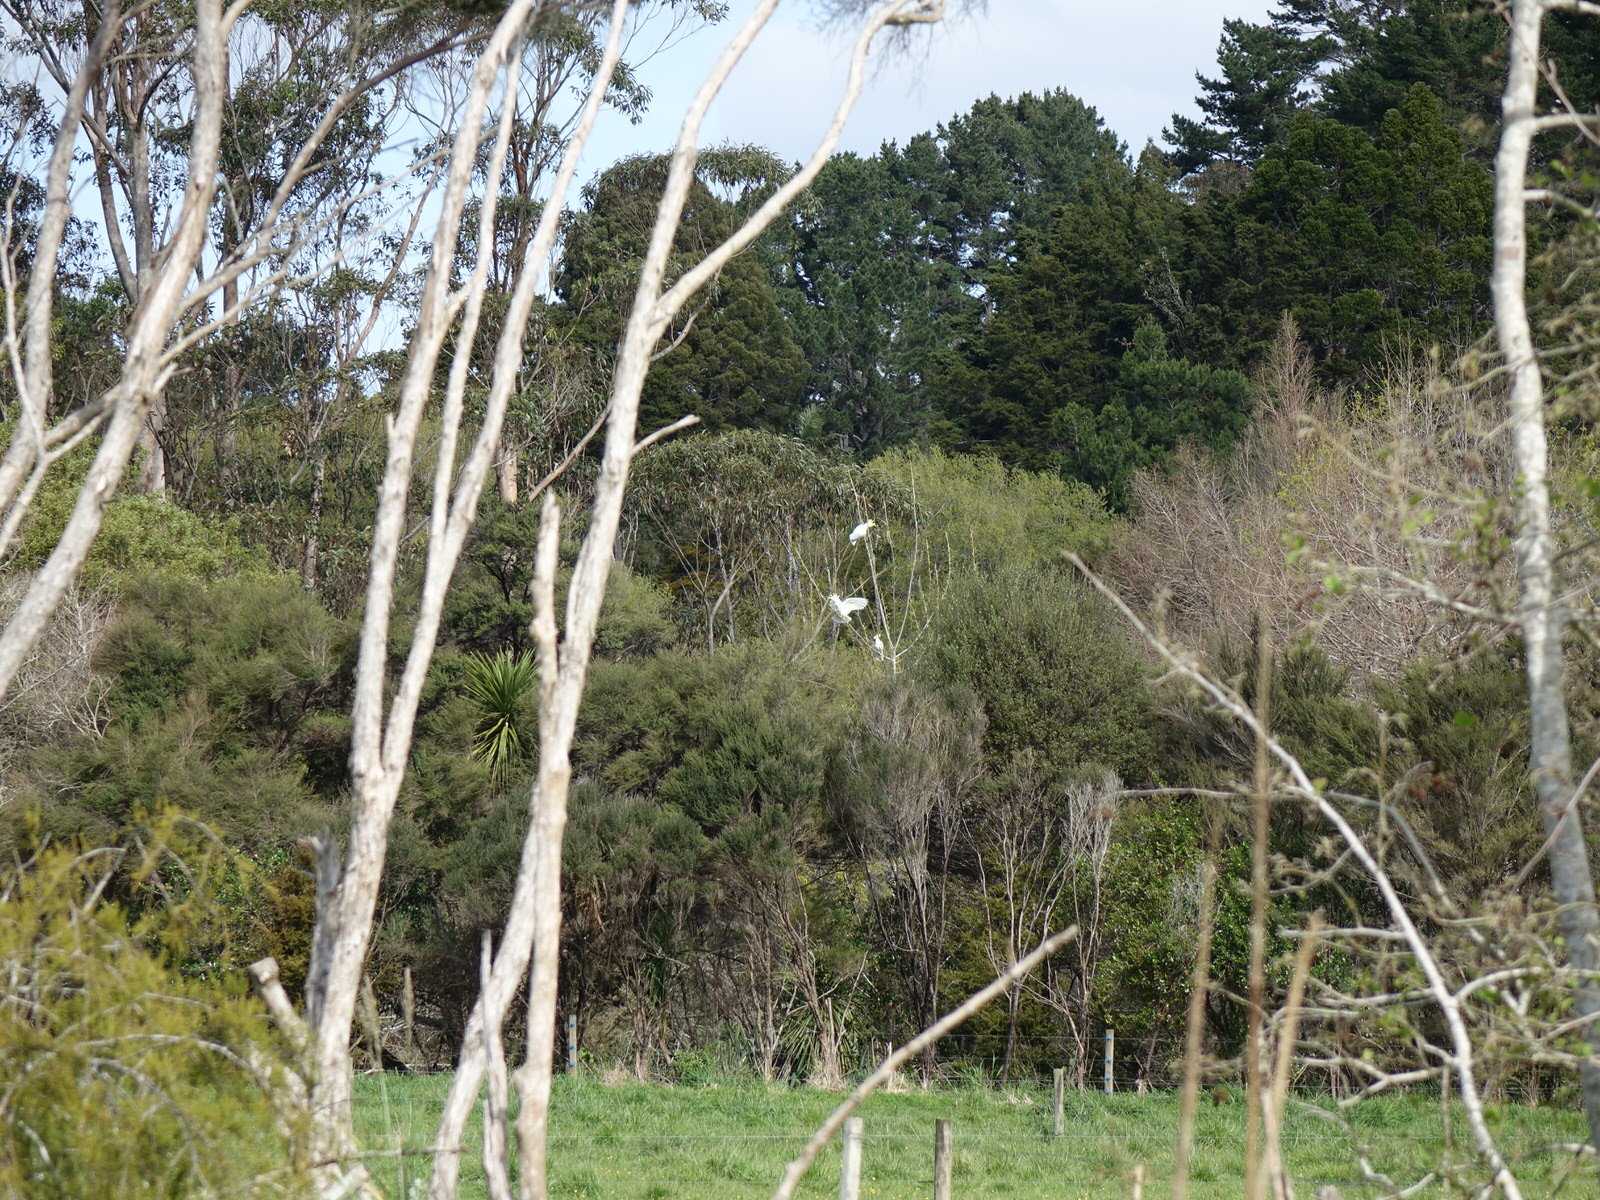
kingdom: Animalia
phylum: Chordata
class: Aves
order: Psittaciformes
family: Psittacidae
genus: Cacatua
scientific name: Cacatua galerita
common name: Sulphur-crested cockatoo
